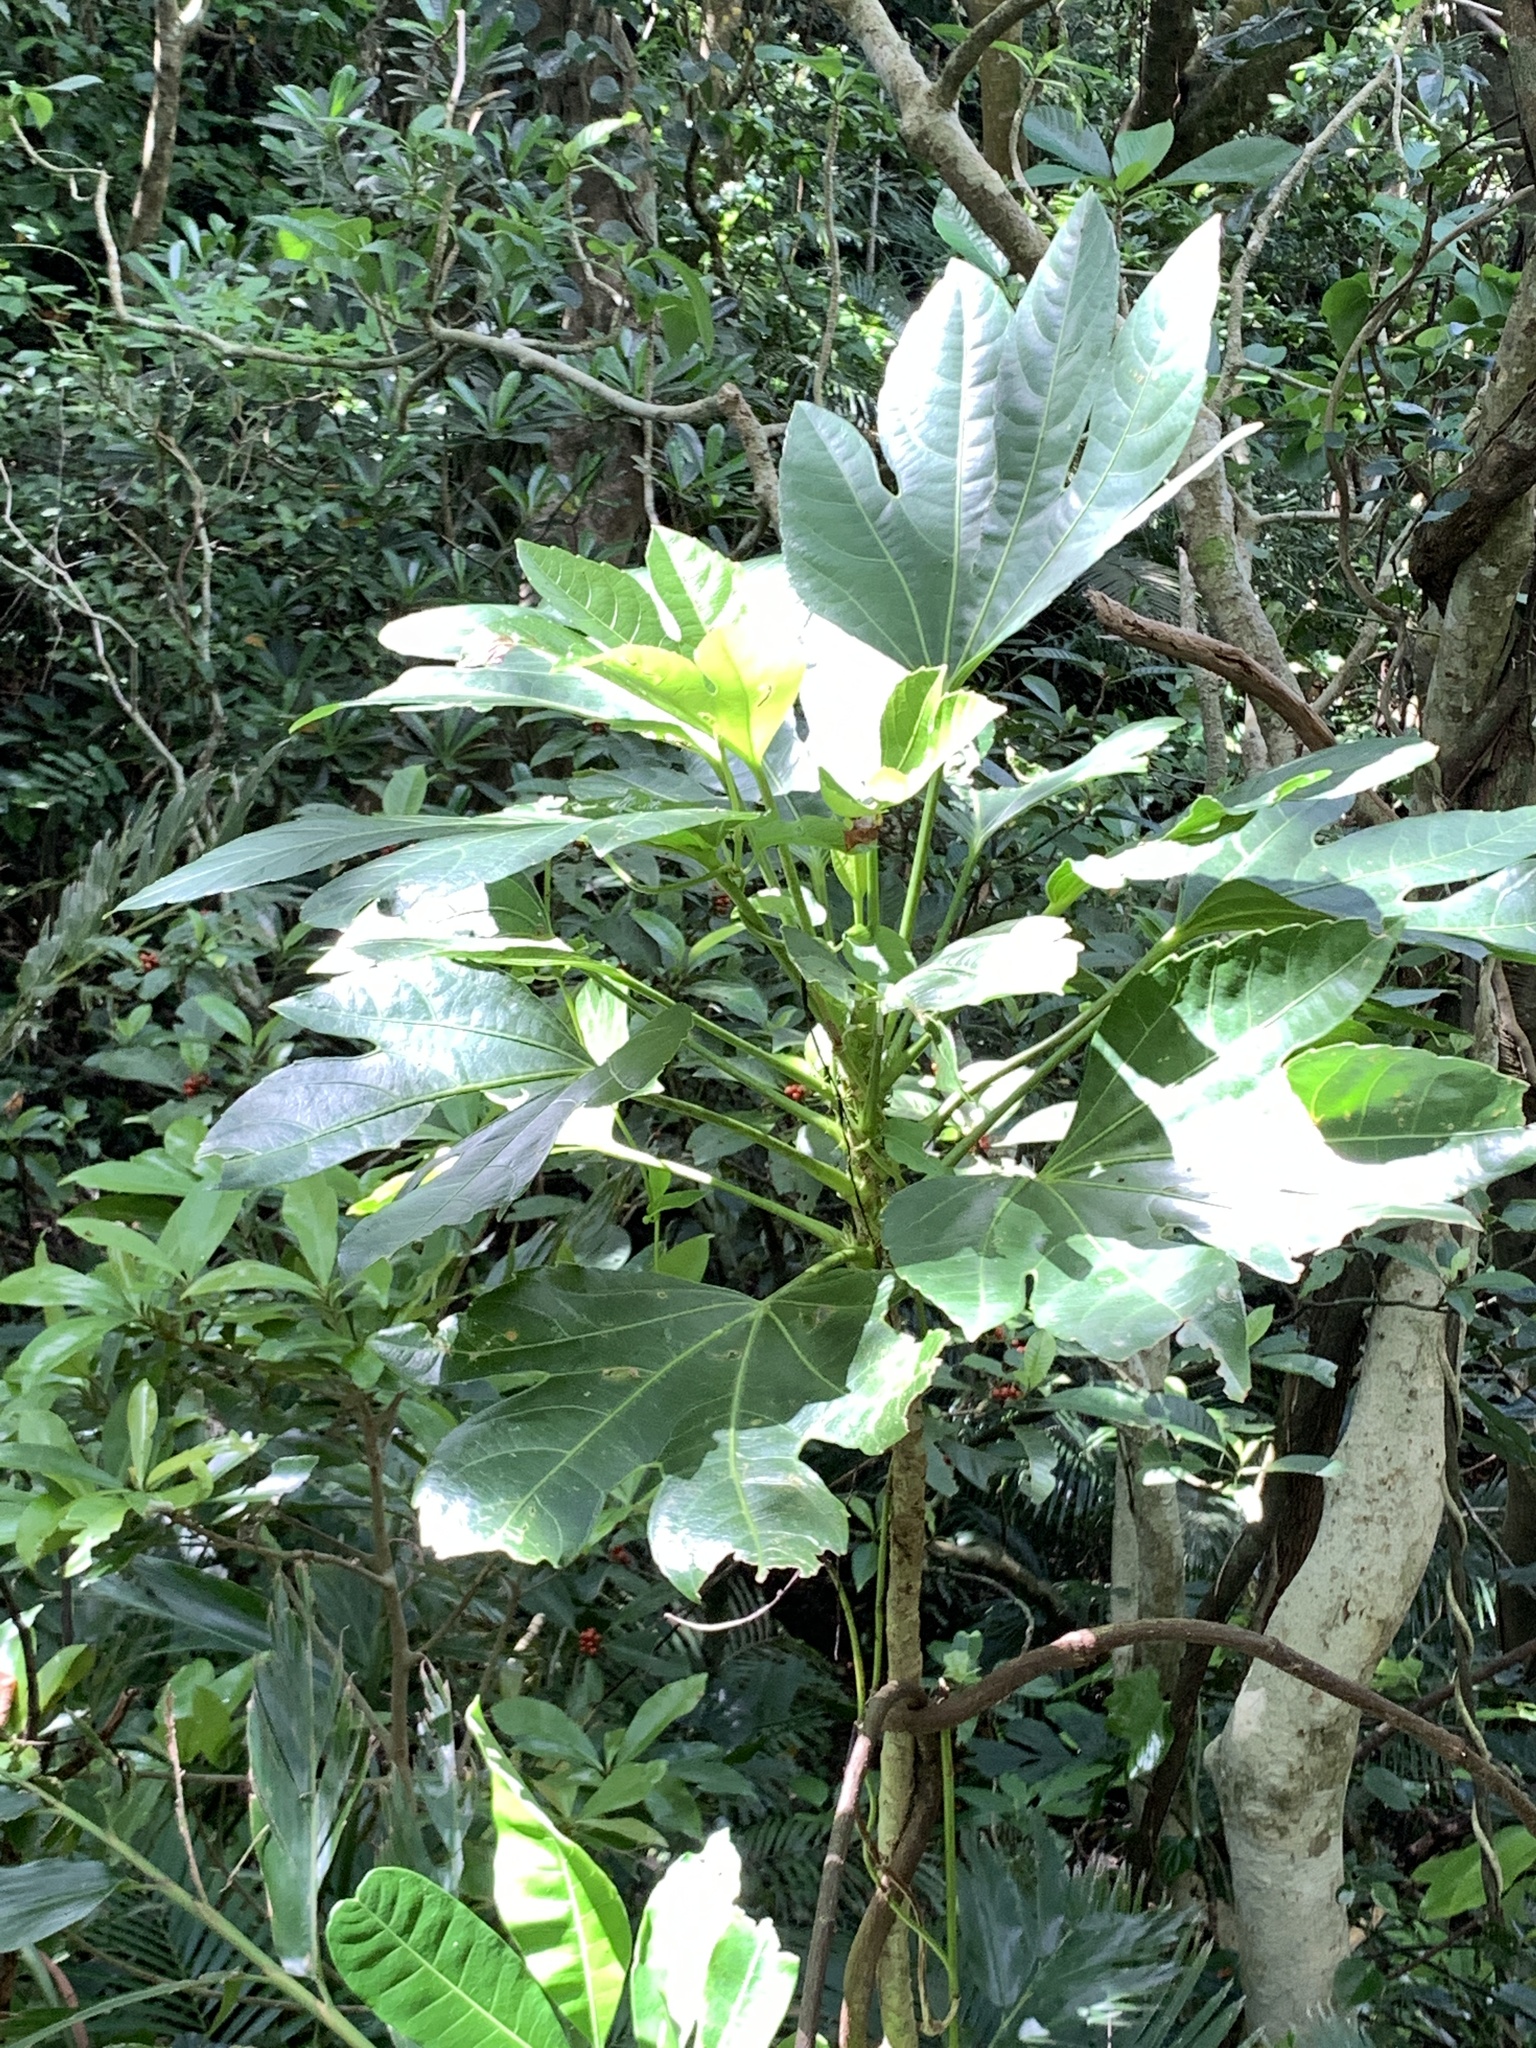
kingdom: Plantae
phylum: Tracheophyta
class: Magnoliopsida
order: Apiales
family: Araliaceae
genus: Osmoxylon
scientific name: Osmoxylon pectinatum
